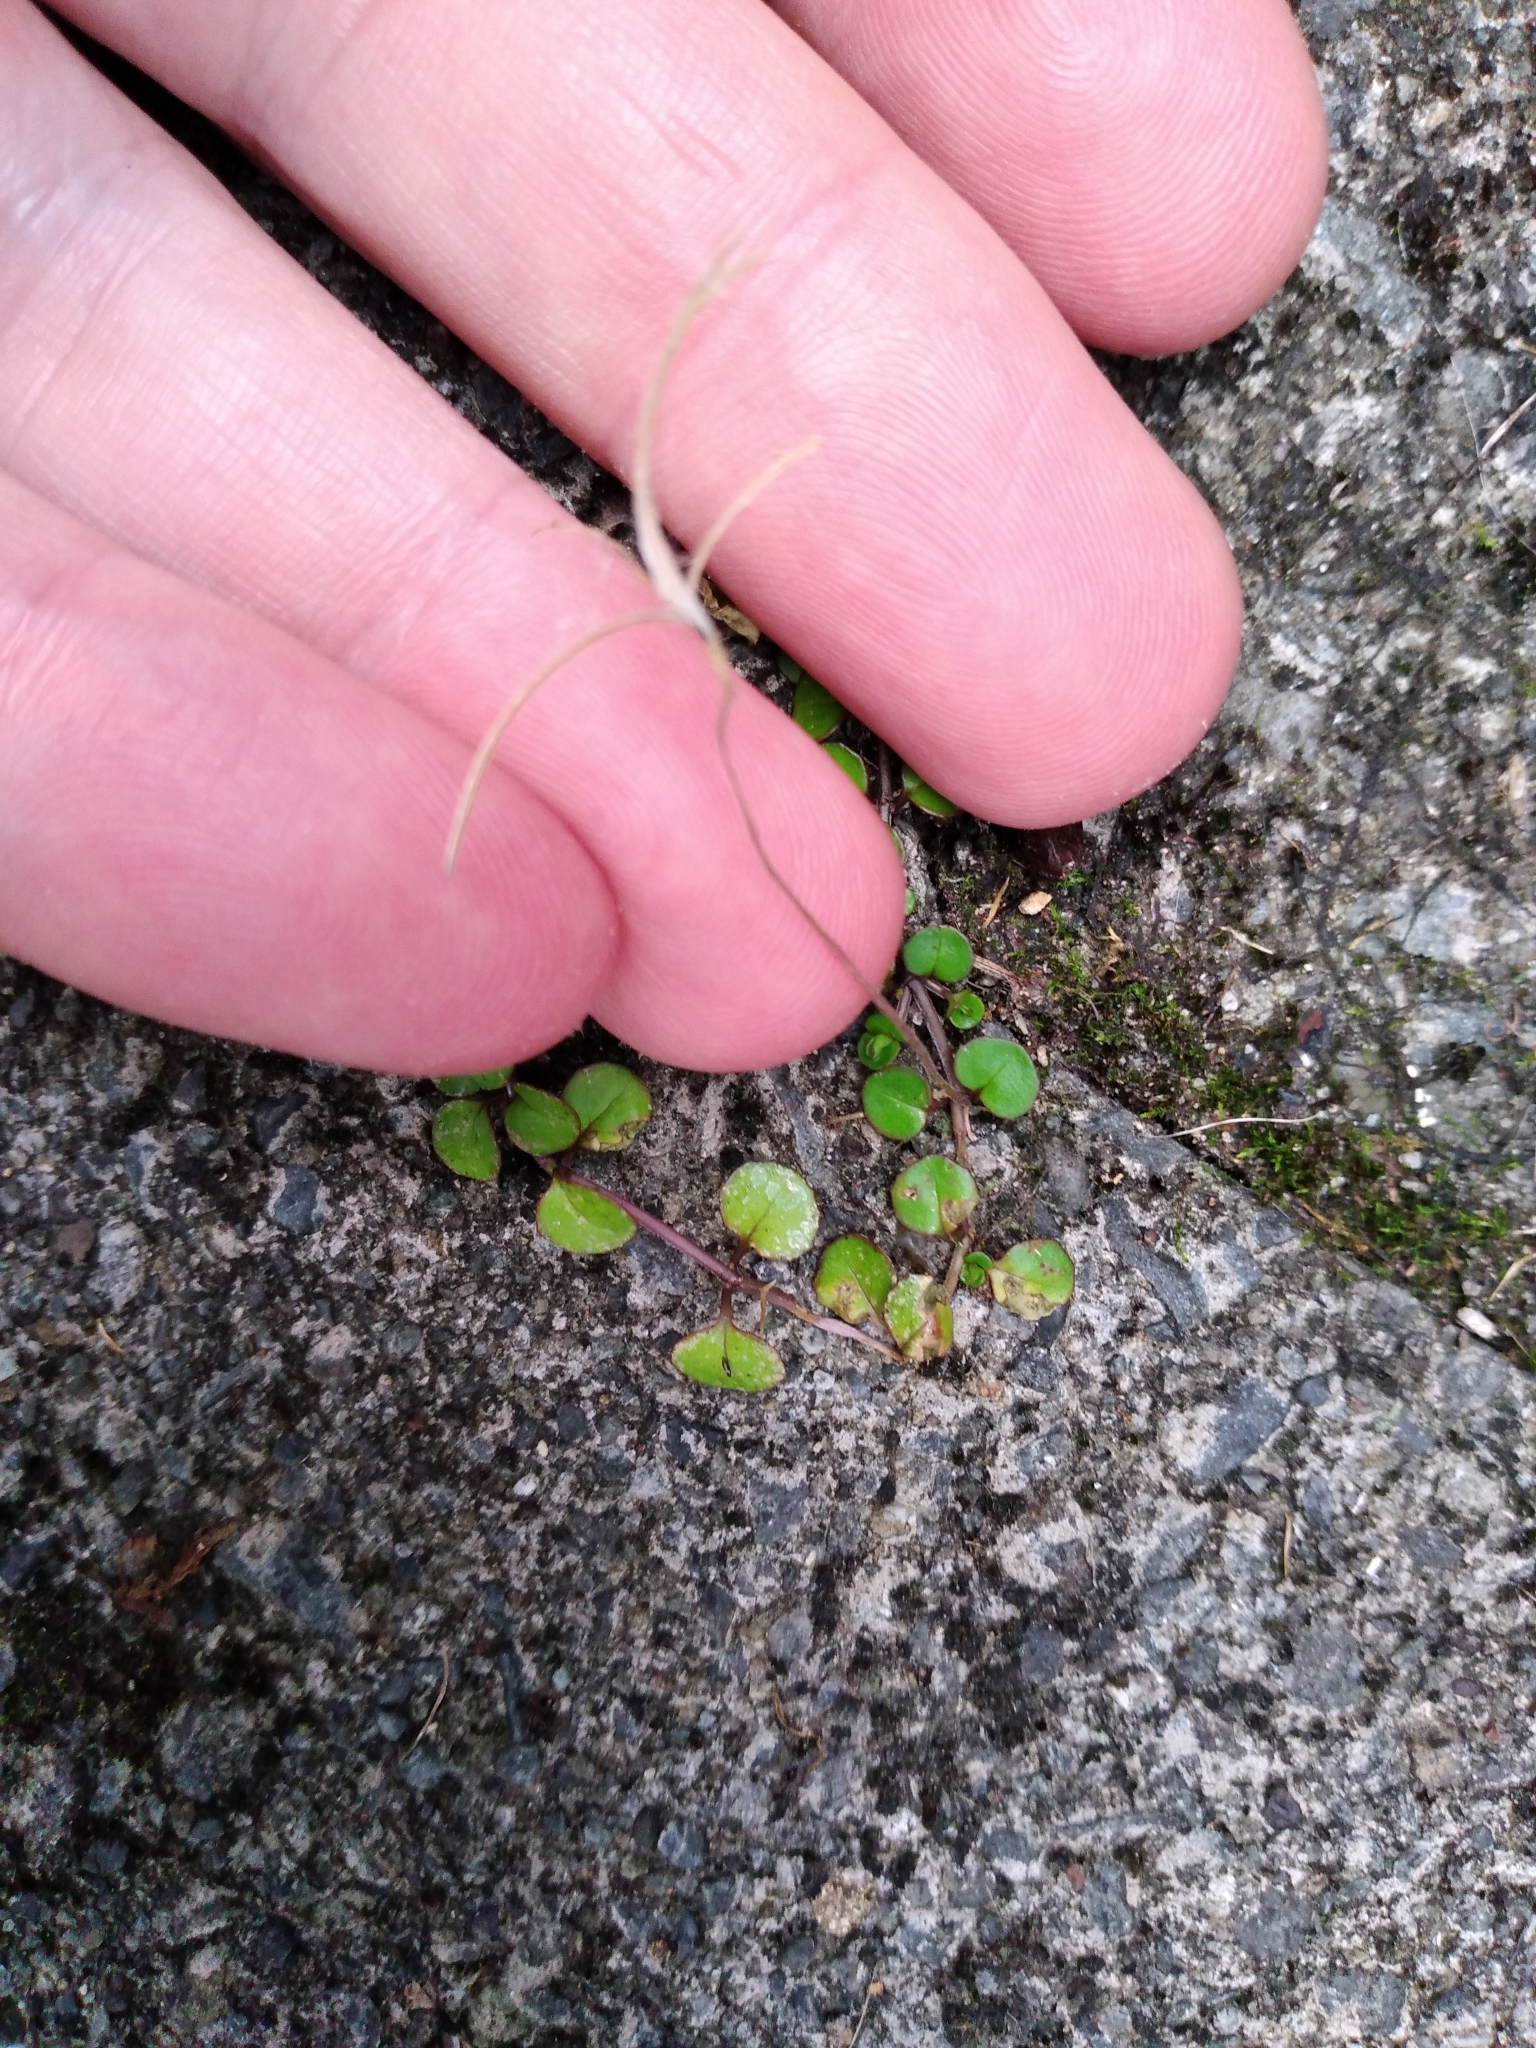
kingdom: Plantae
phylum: Tracheophyta
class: Magnoliopsida
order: Myrtales
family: Onagraceae
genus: Epilobium
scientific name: Epilobium nummularifolium
